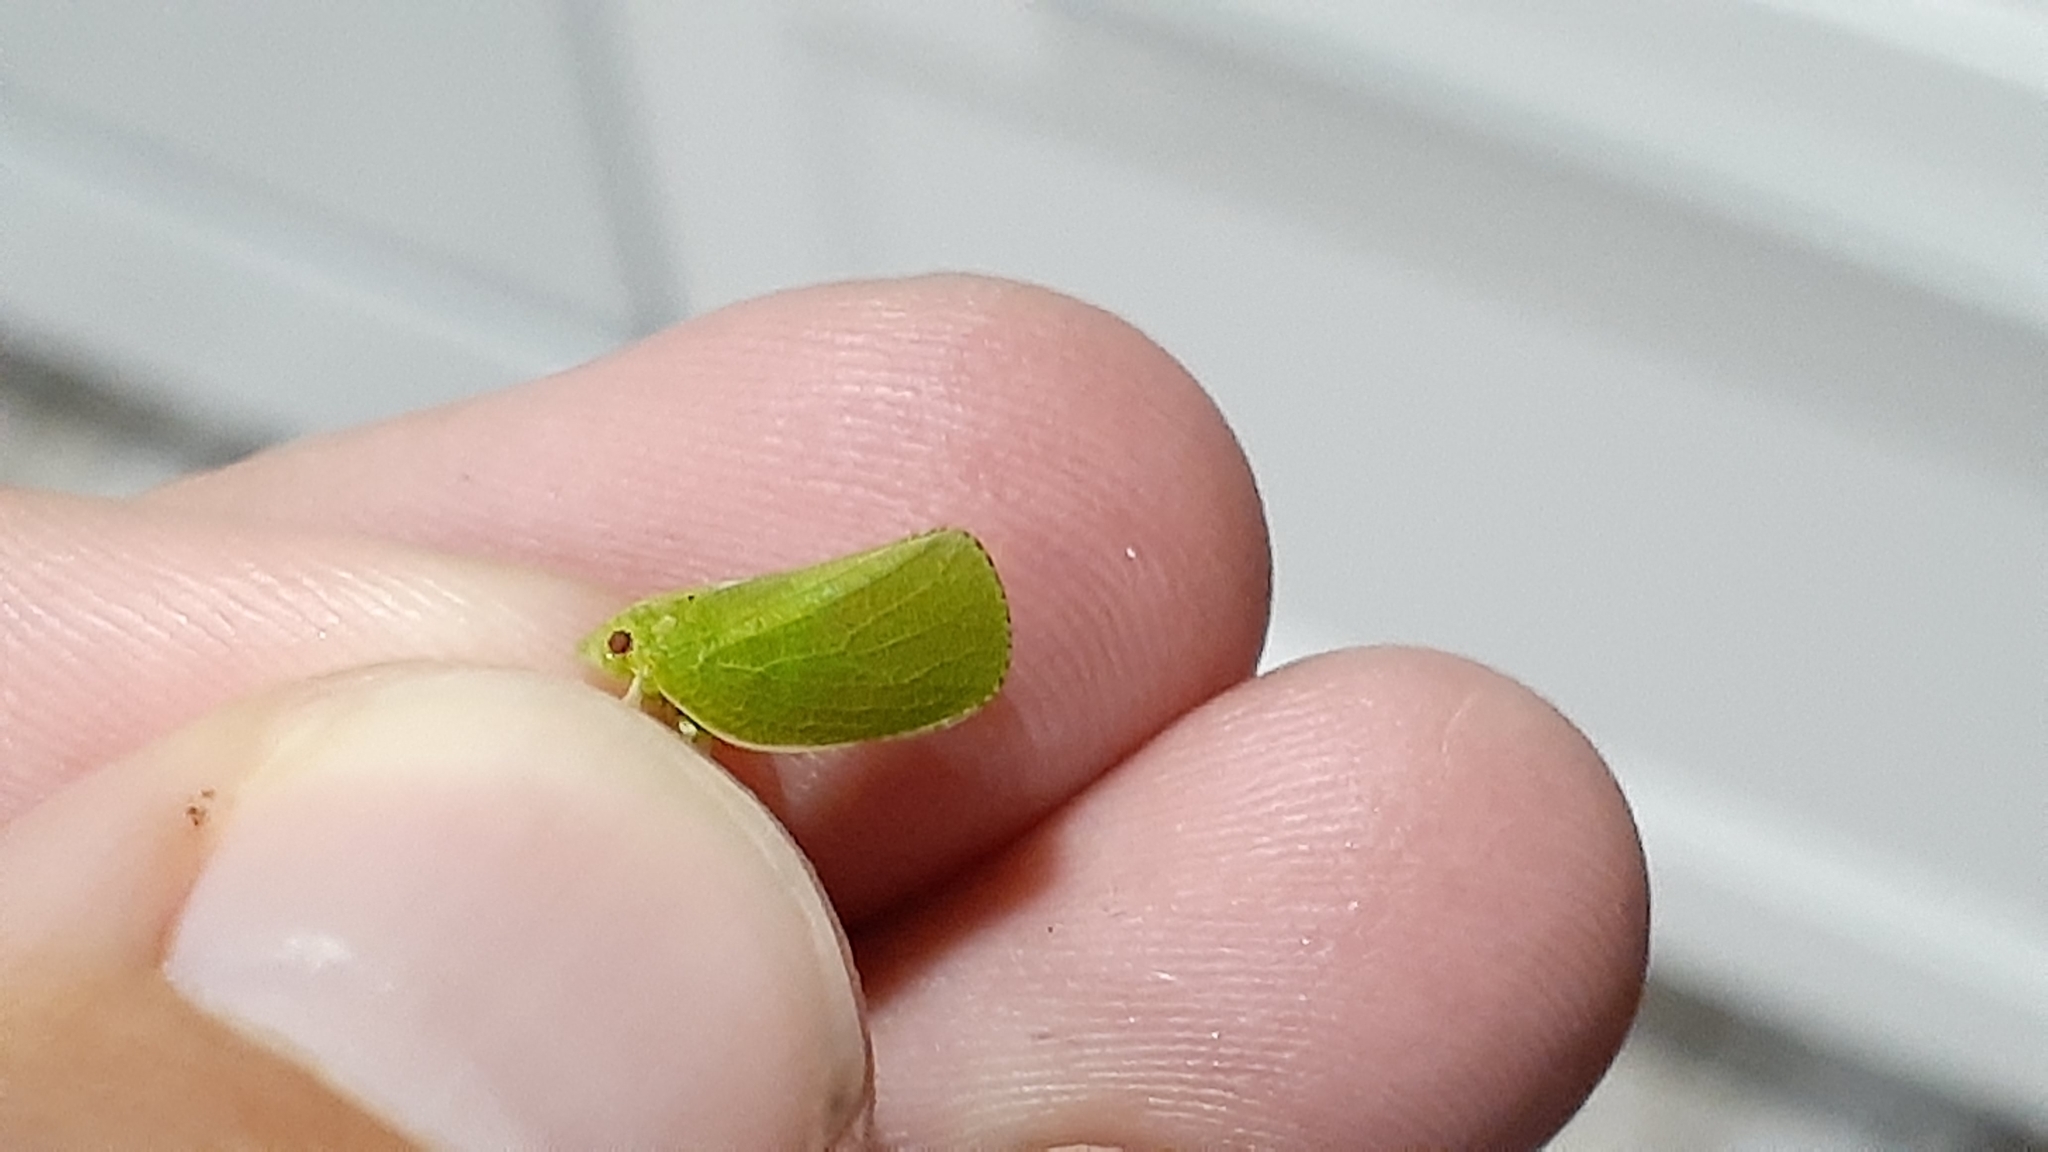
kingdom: Animalia
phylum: Arthropoda
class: Insecta
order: Hemiptera
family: Acanaloniidae
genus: Acanalonia
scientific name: Acanalonia conica
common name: Green cone-headed planthopper
